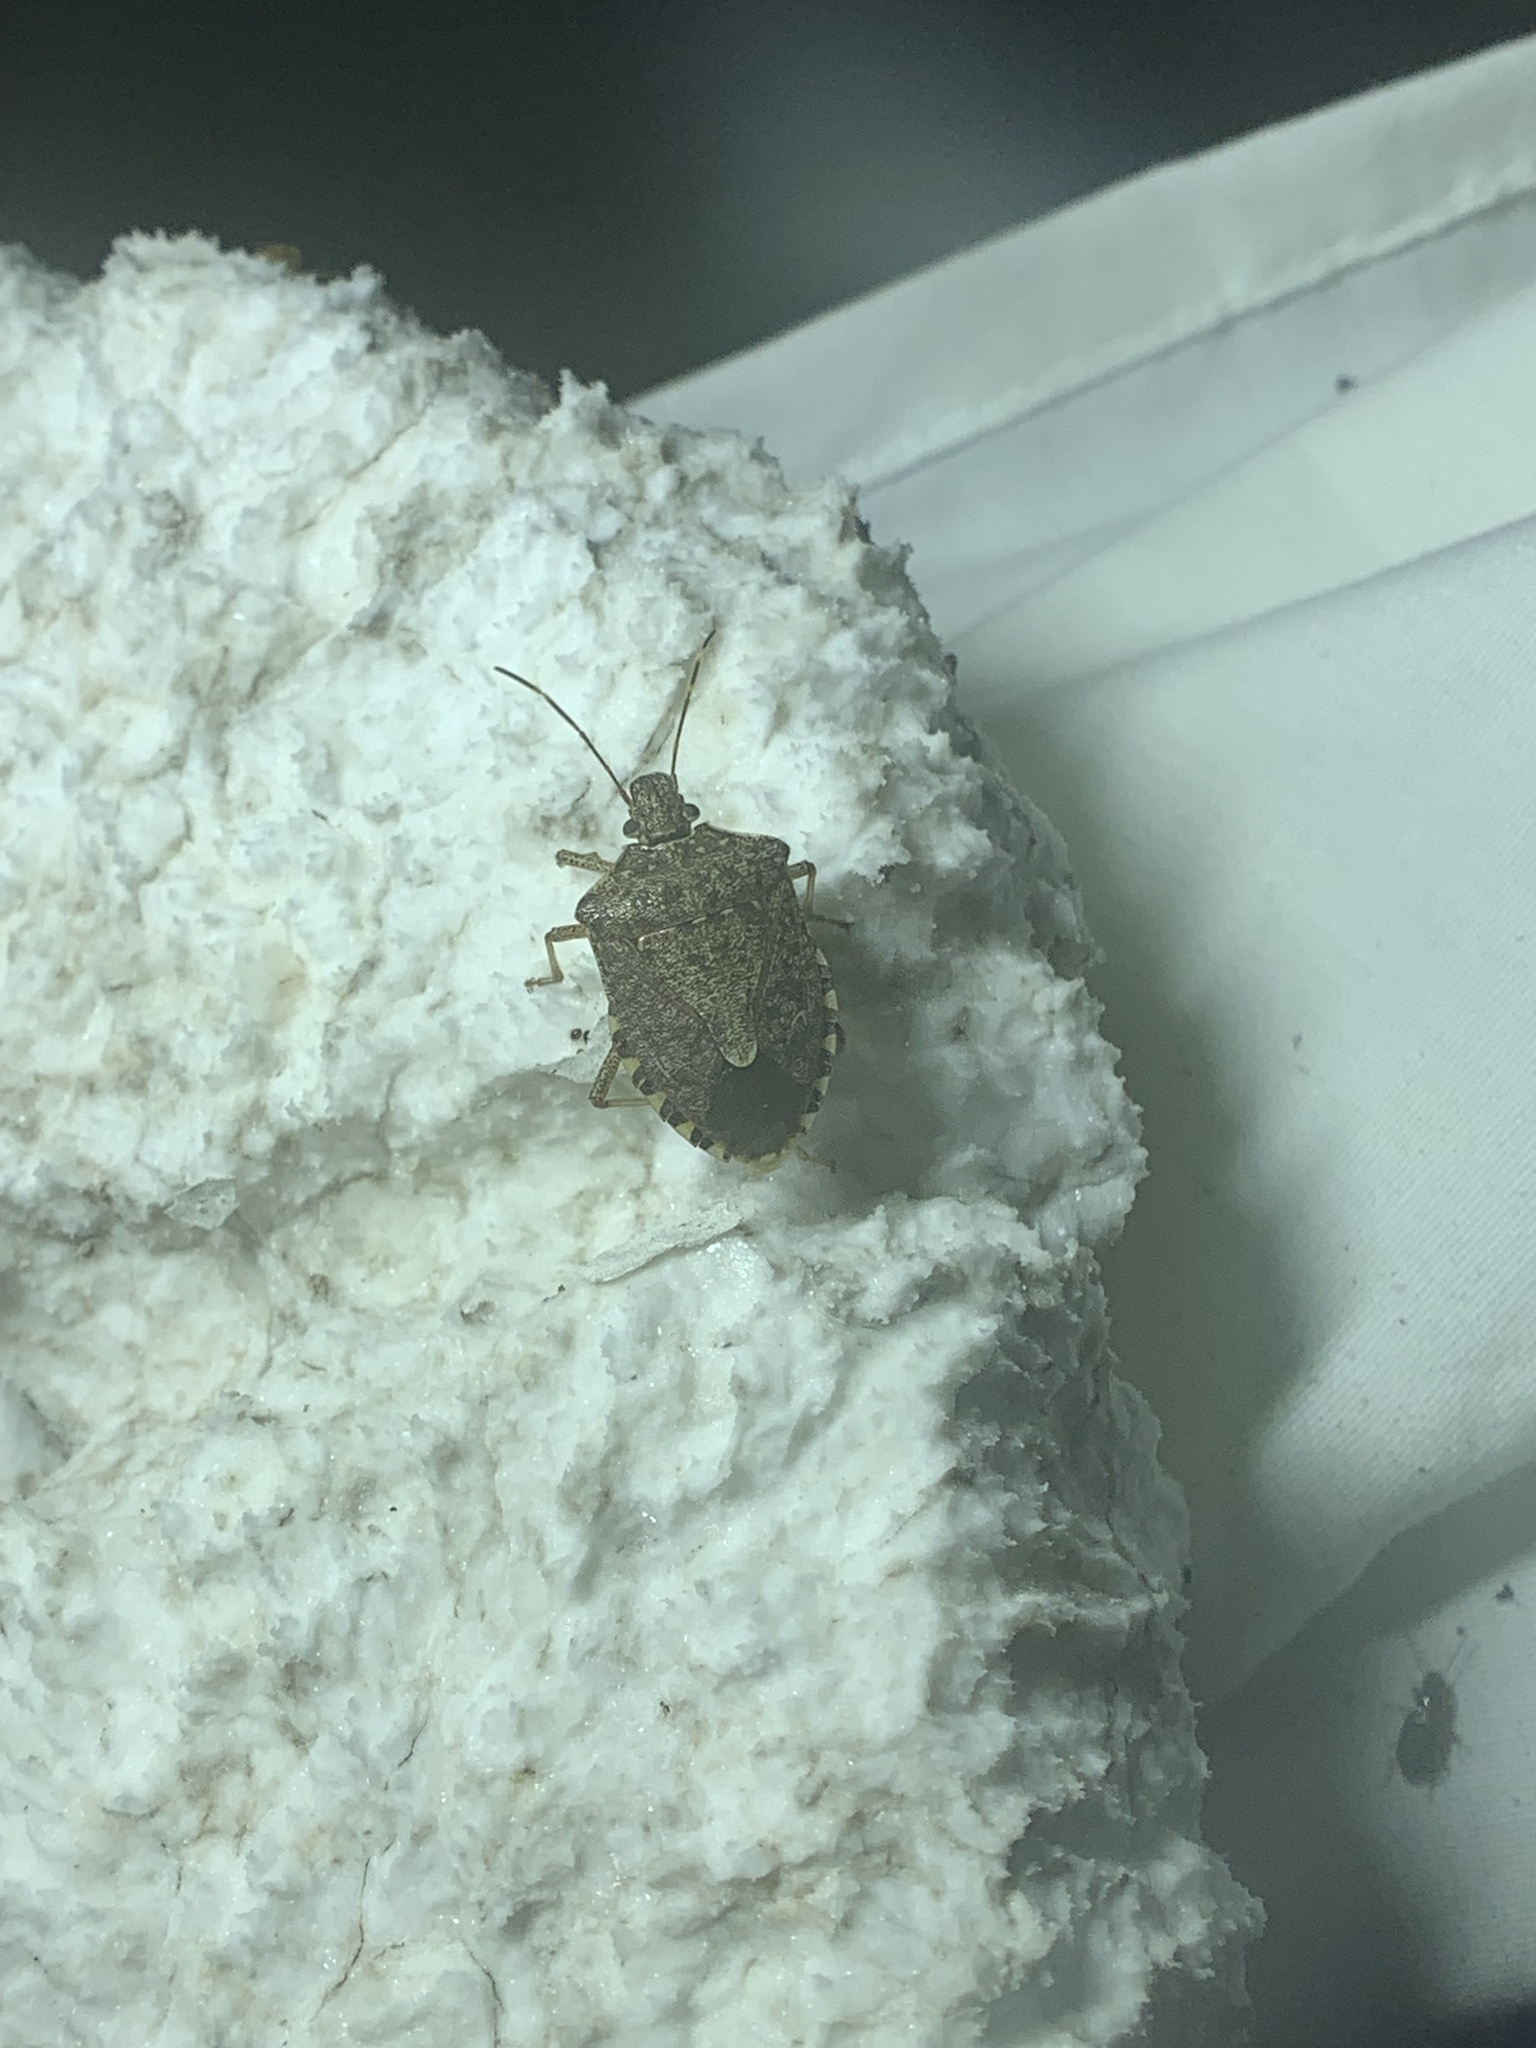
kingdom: Animalia
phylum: Arthropoda
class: Insecta
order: Hemiptera
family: Pentatomidae
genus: Halyomorpha
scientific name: Halyomorpha halys
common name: Brown marmorated stink bug
